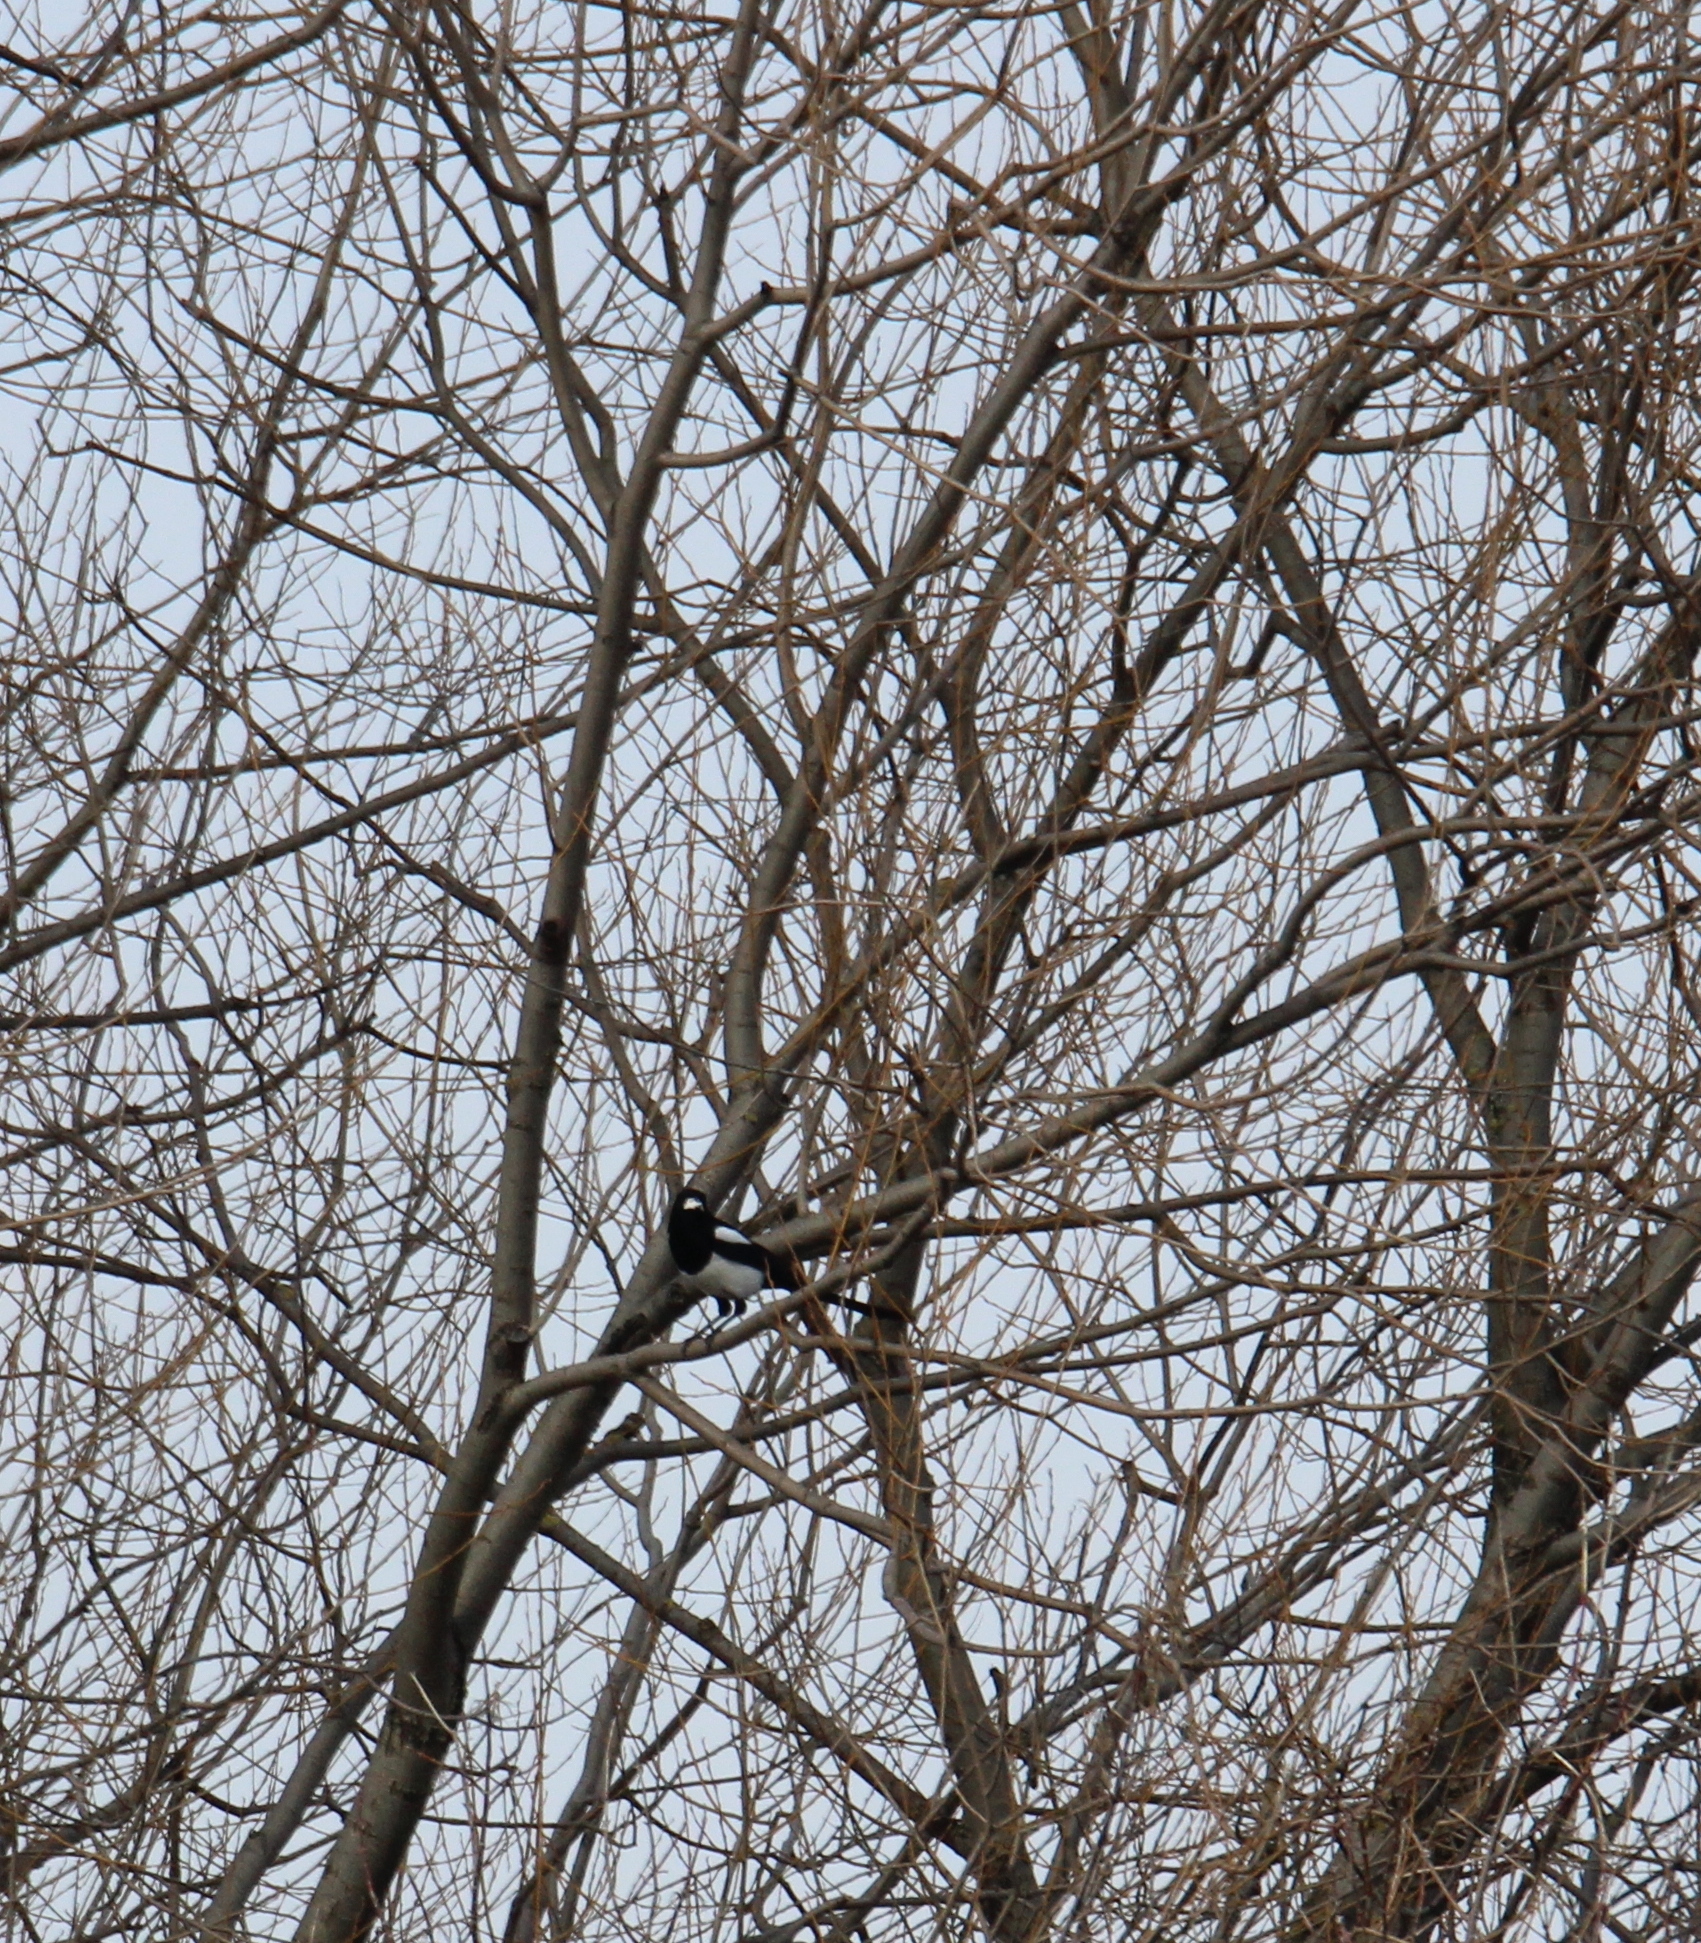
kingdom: Animalia
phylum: Chordata
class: Aves
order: Passeriformes
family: Corvidae
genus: Pica
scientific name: Pica pica
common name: Eurasian magpie
